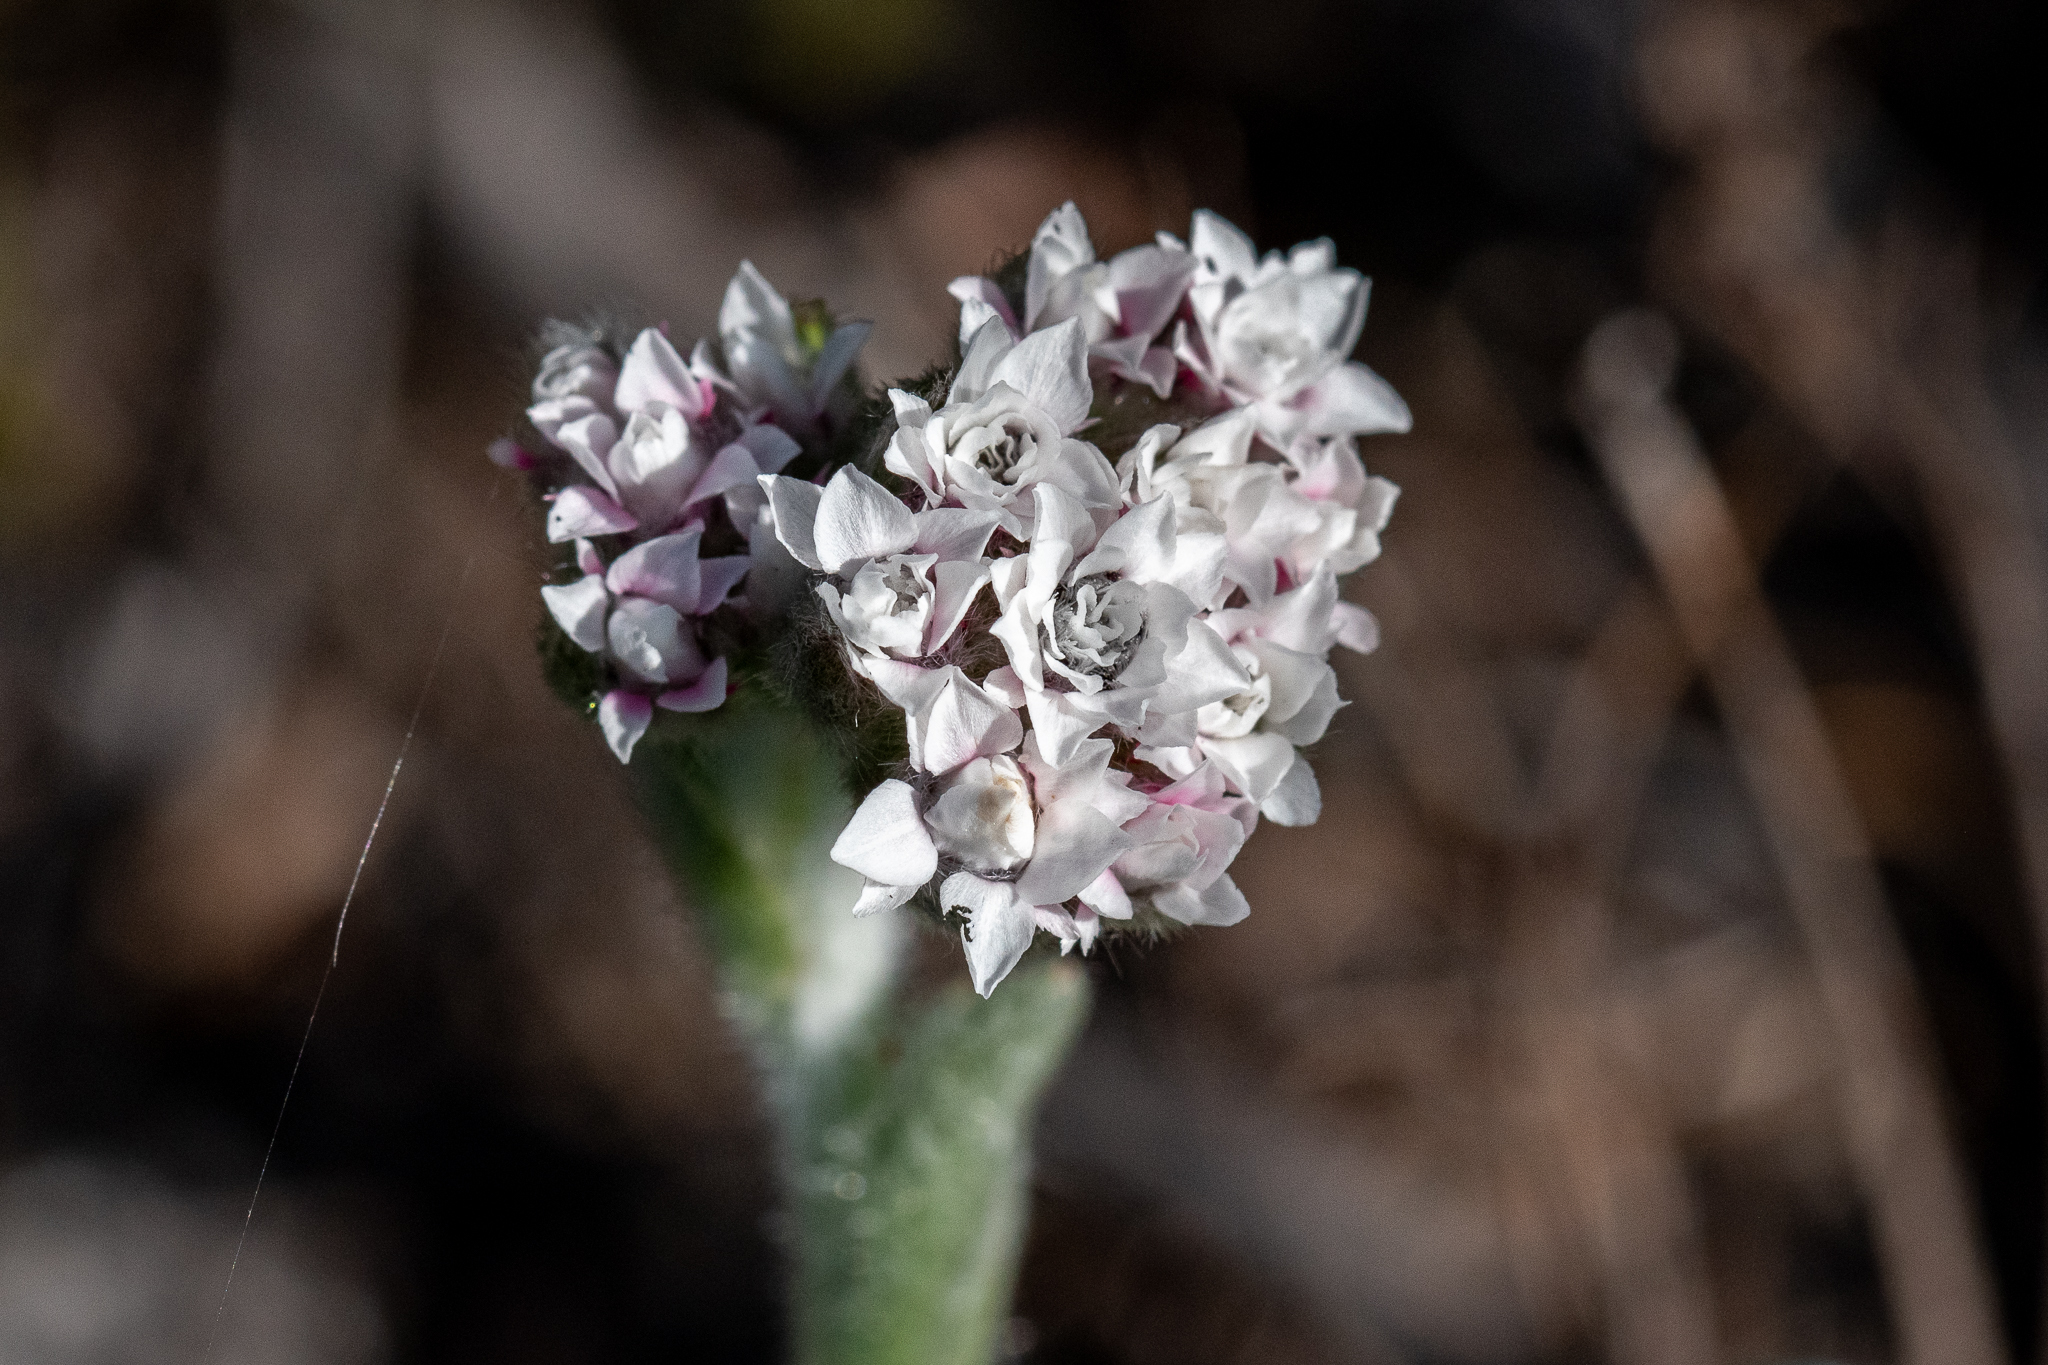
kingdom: Plantae
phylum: Tracheophyta
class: Magnoliopsida
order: Asterales
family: Asteraceae
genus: Petalacte
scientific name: Petalacte coronata
